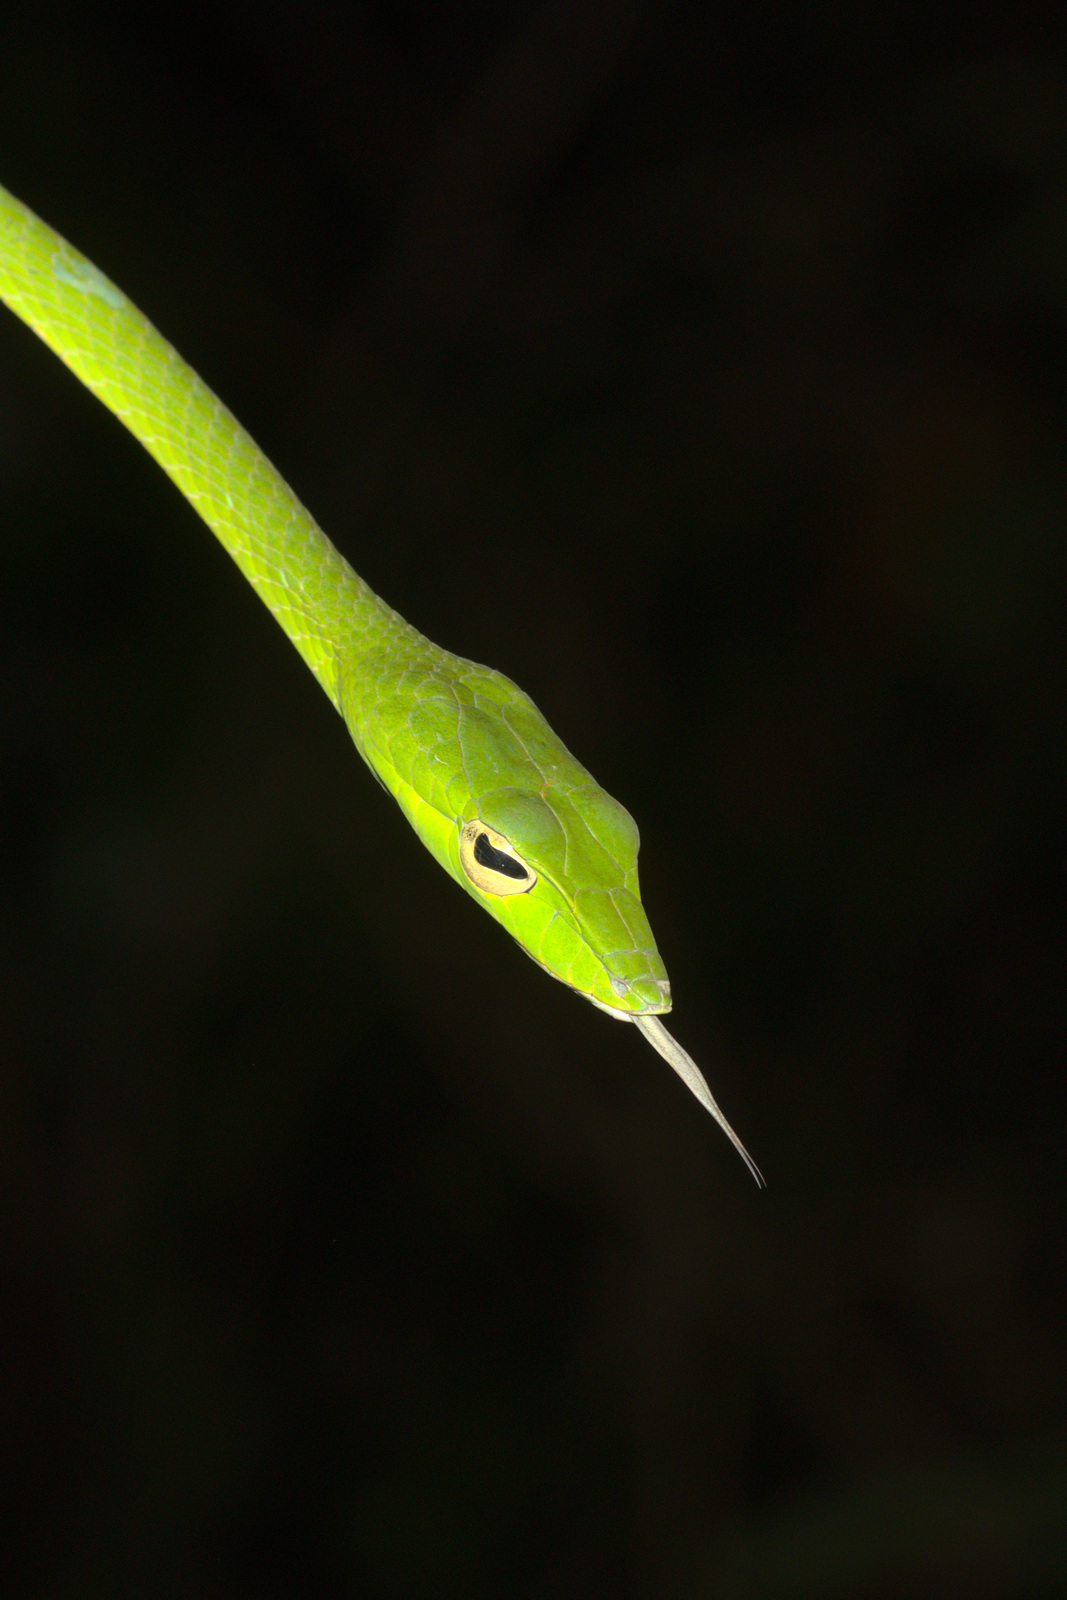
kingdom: Animalia
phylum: Chordata
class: Squamata
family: Colubridae
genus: Ahaetulla
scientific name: Ahaetulla prasina
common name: Oriental whip snake
